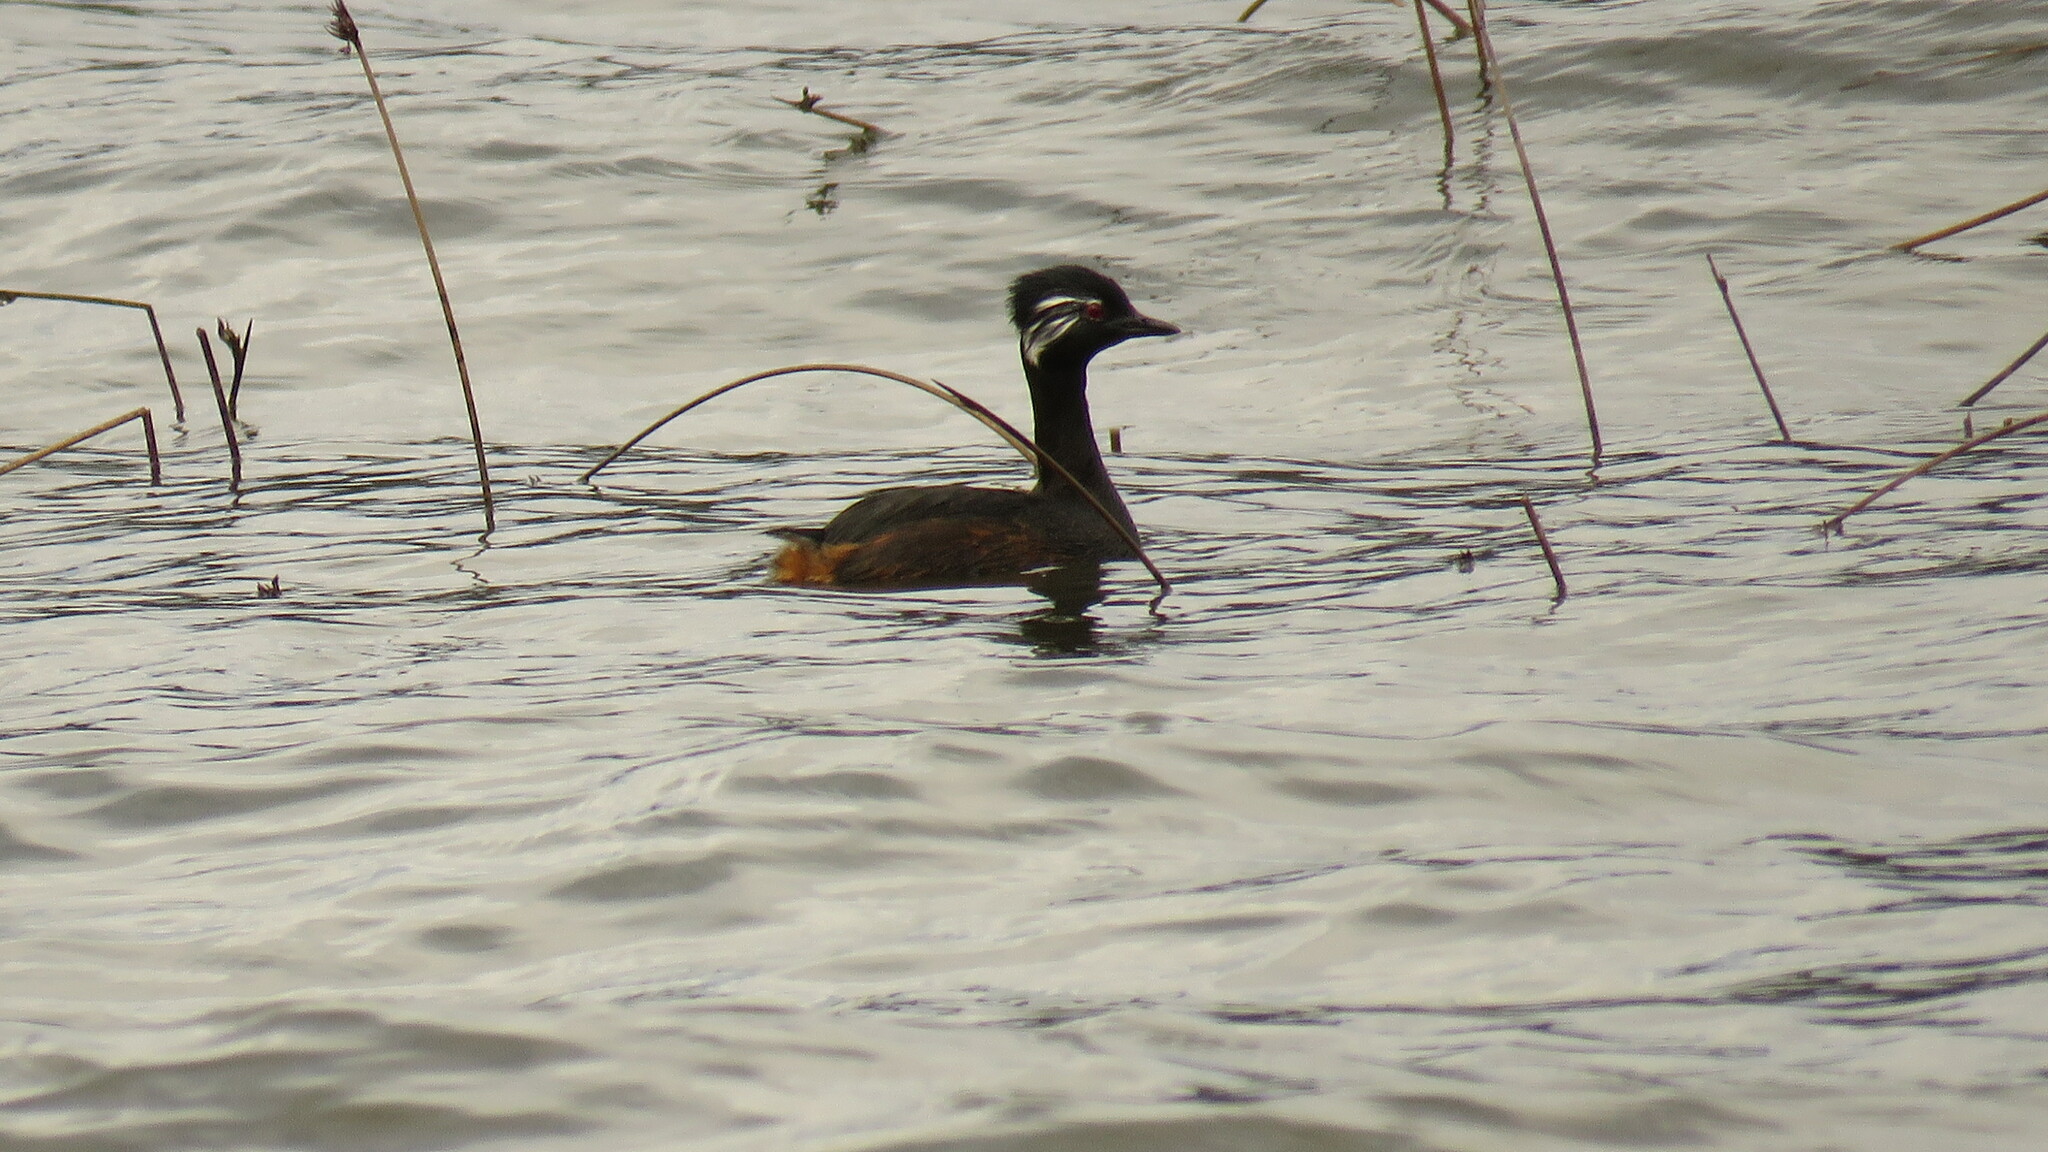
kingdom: Animalia
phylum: Chordata
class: Aves
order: Podicipediformes
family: Podicipedidae
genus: Rollandia
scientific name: Rollandia rolland
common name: White-tufted grebe
